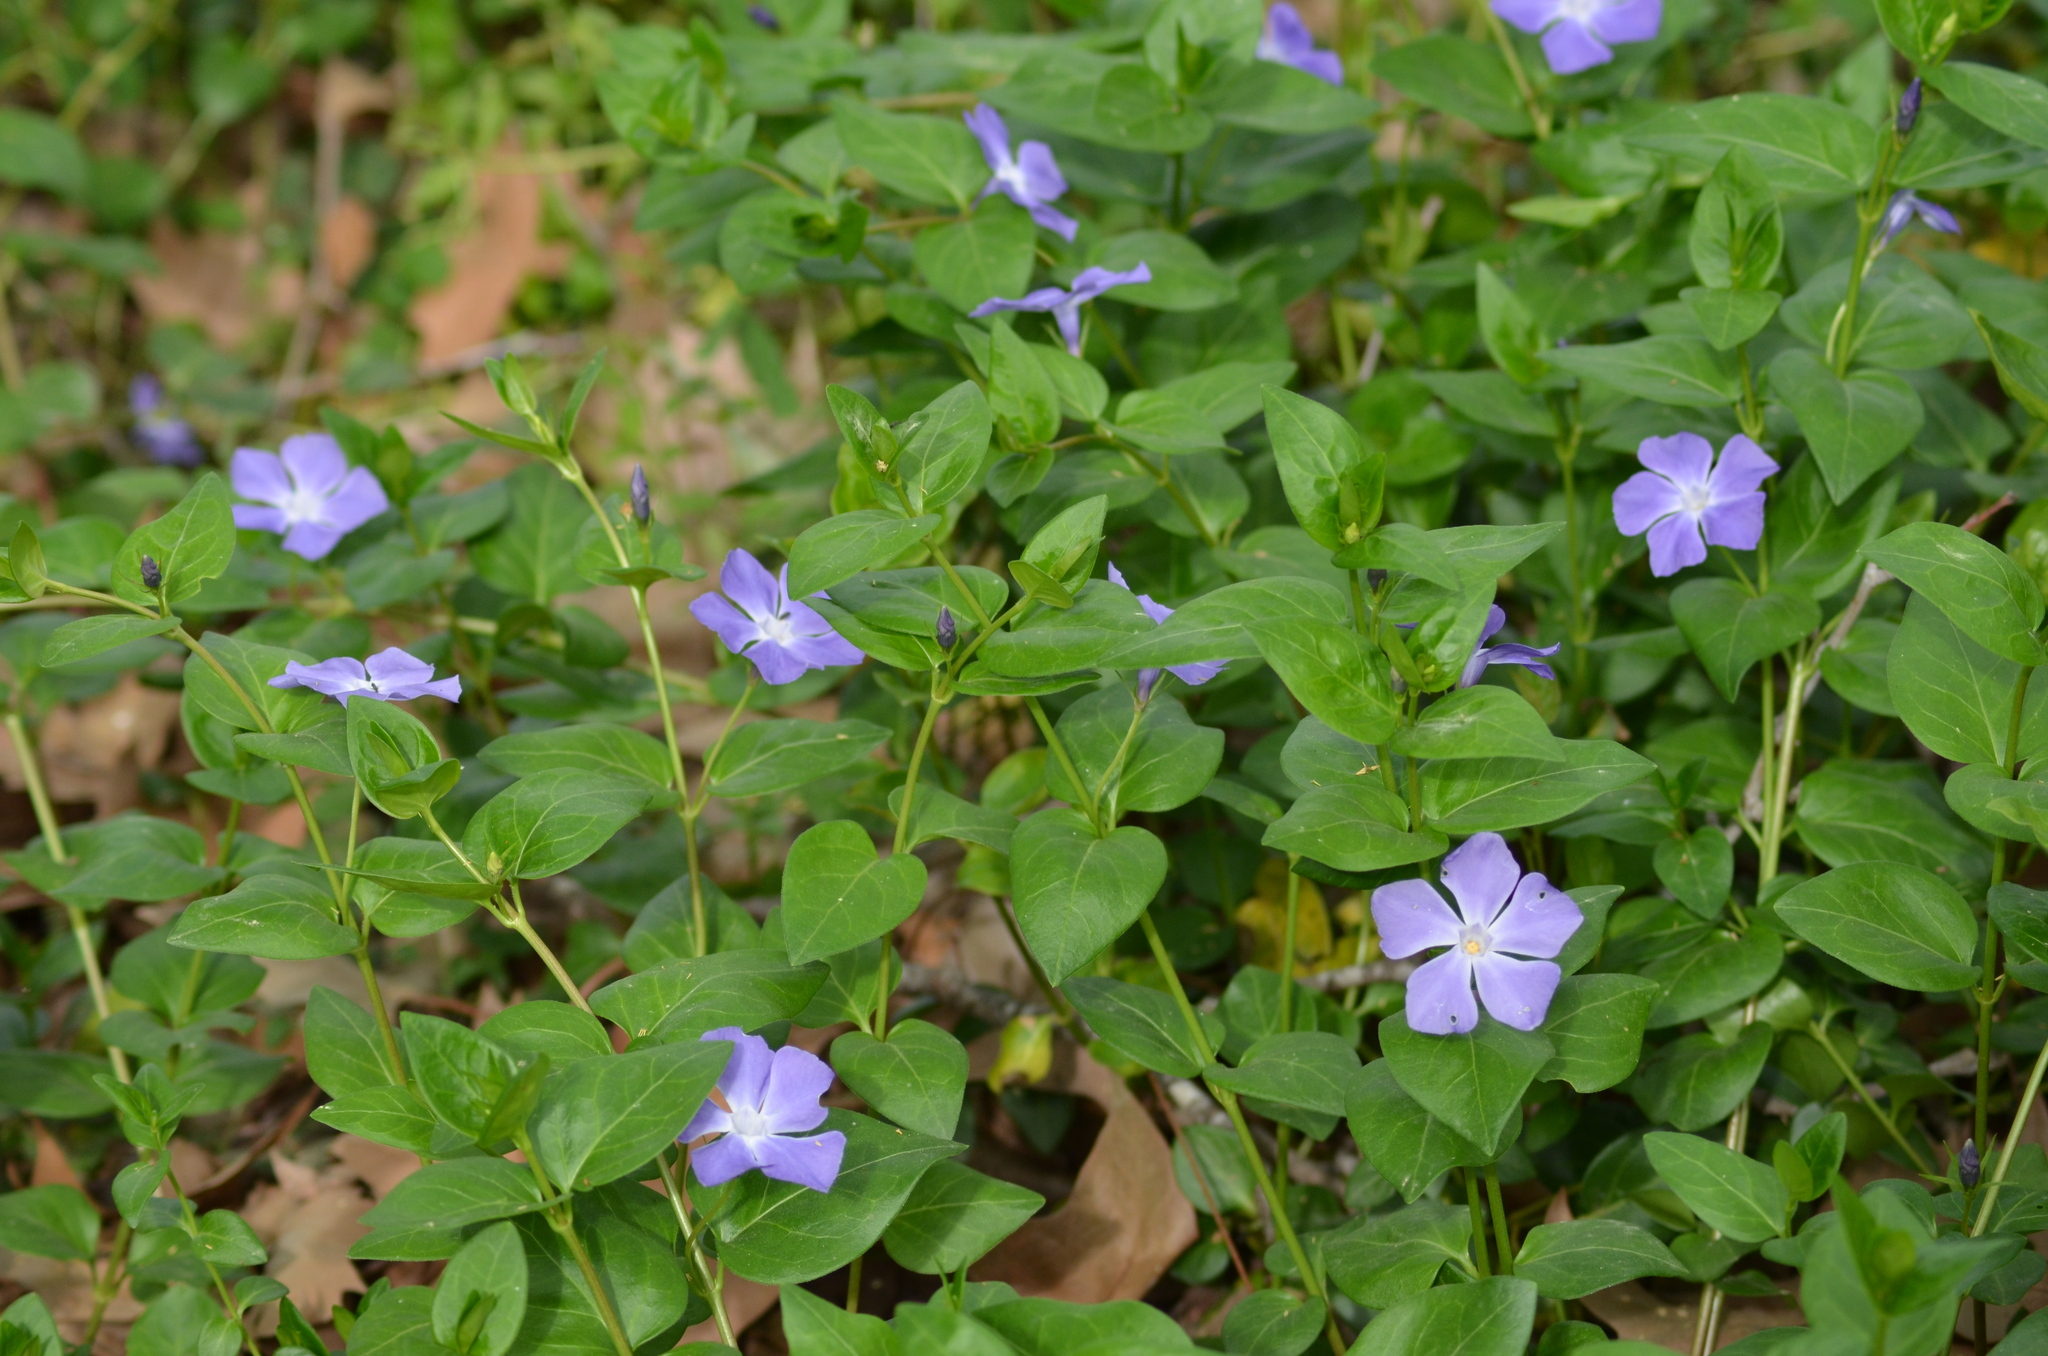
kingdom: Plantae
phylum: Tracheophyta
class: Magnoliopsida
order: Gentianales
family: Apocynaceae
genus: Vinca
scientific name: Vinca major
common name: Greater periwinkle
